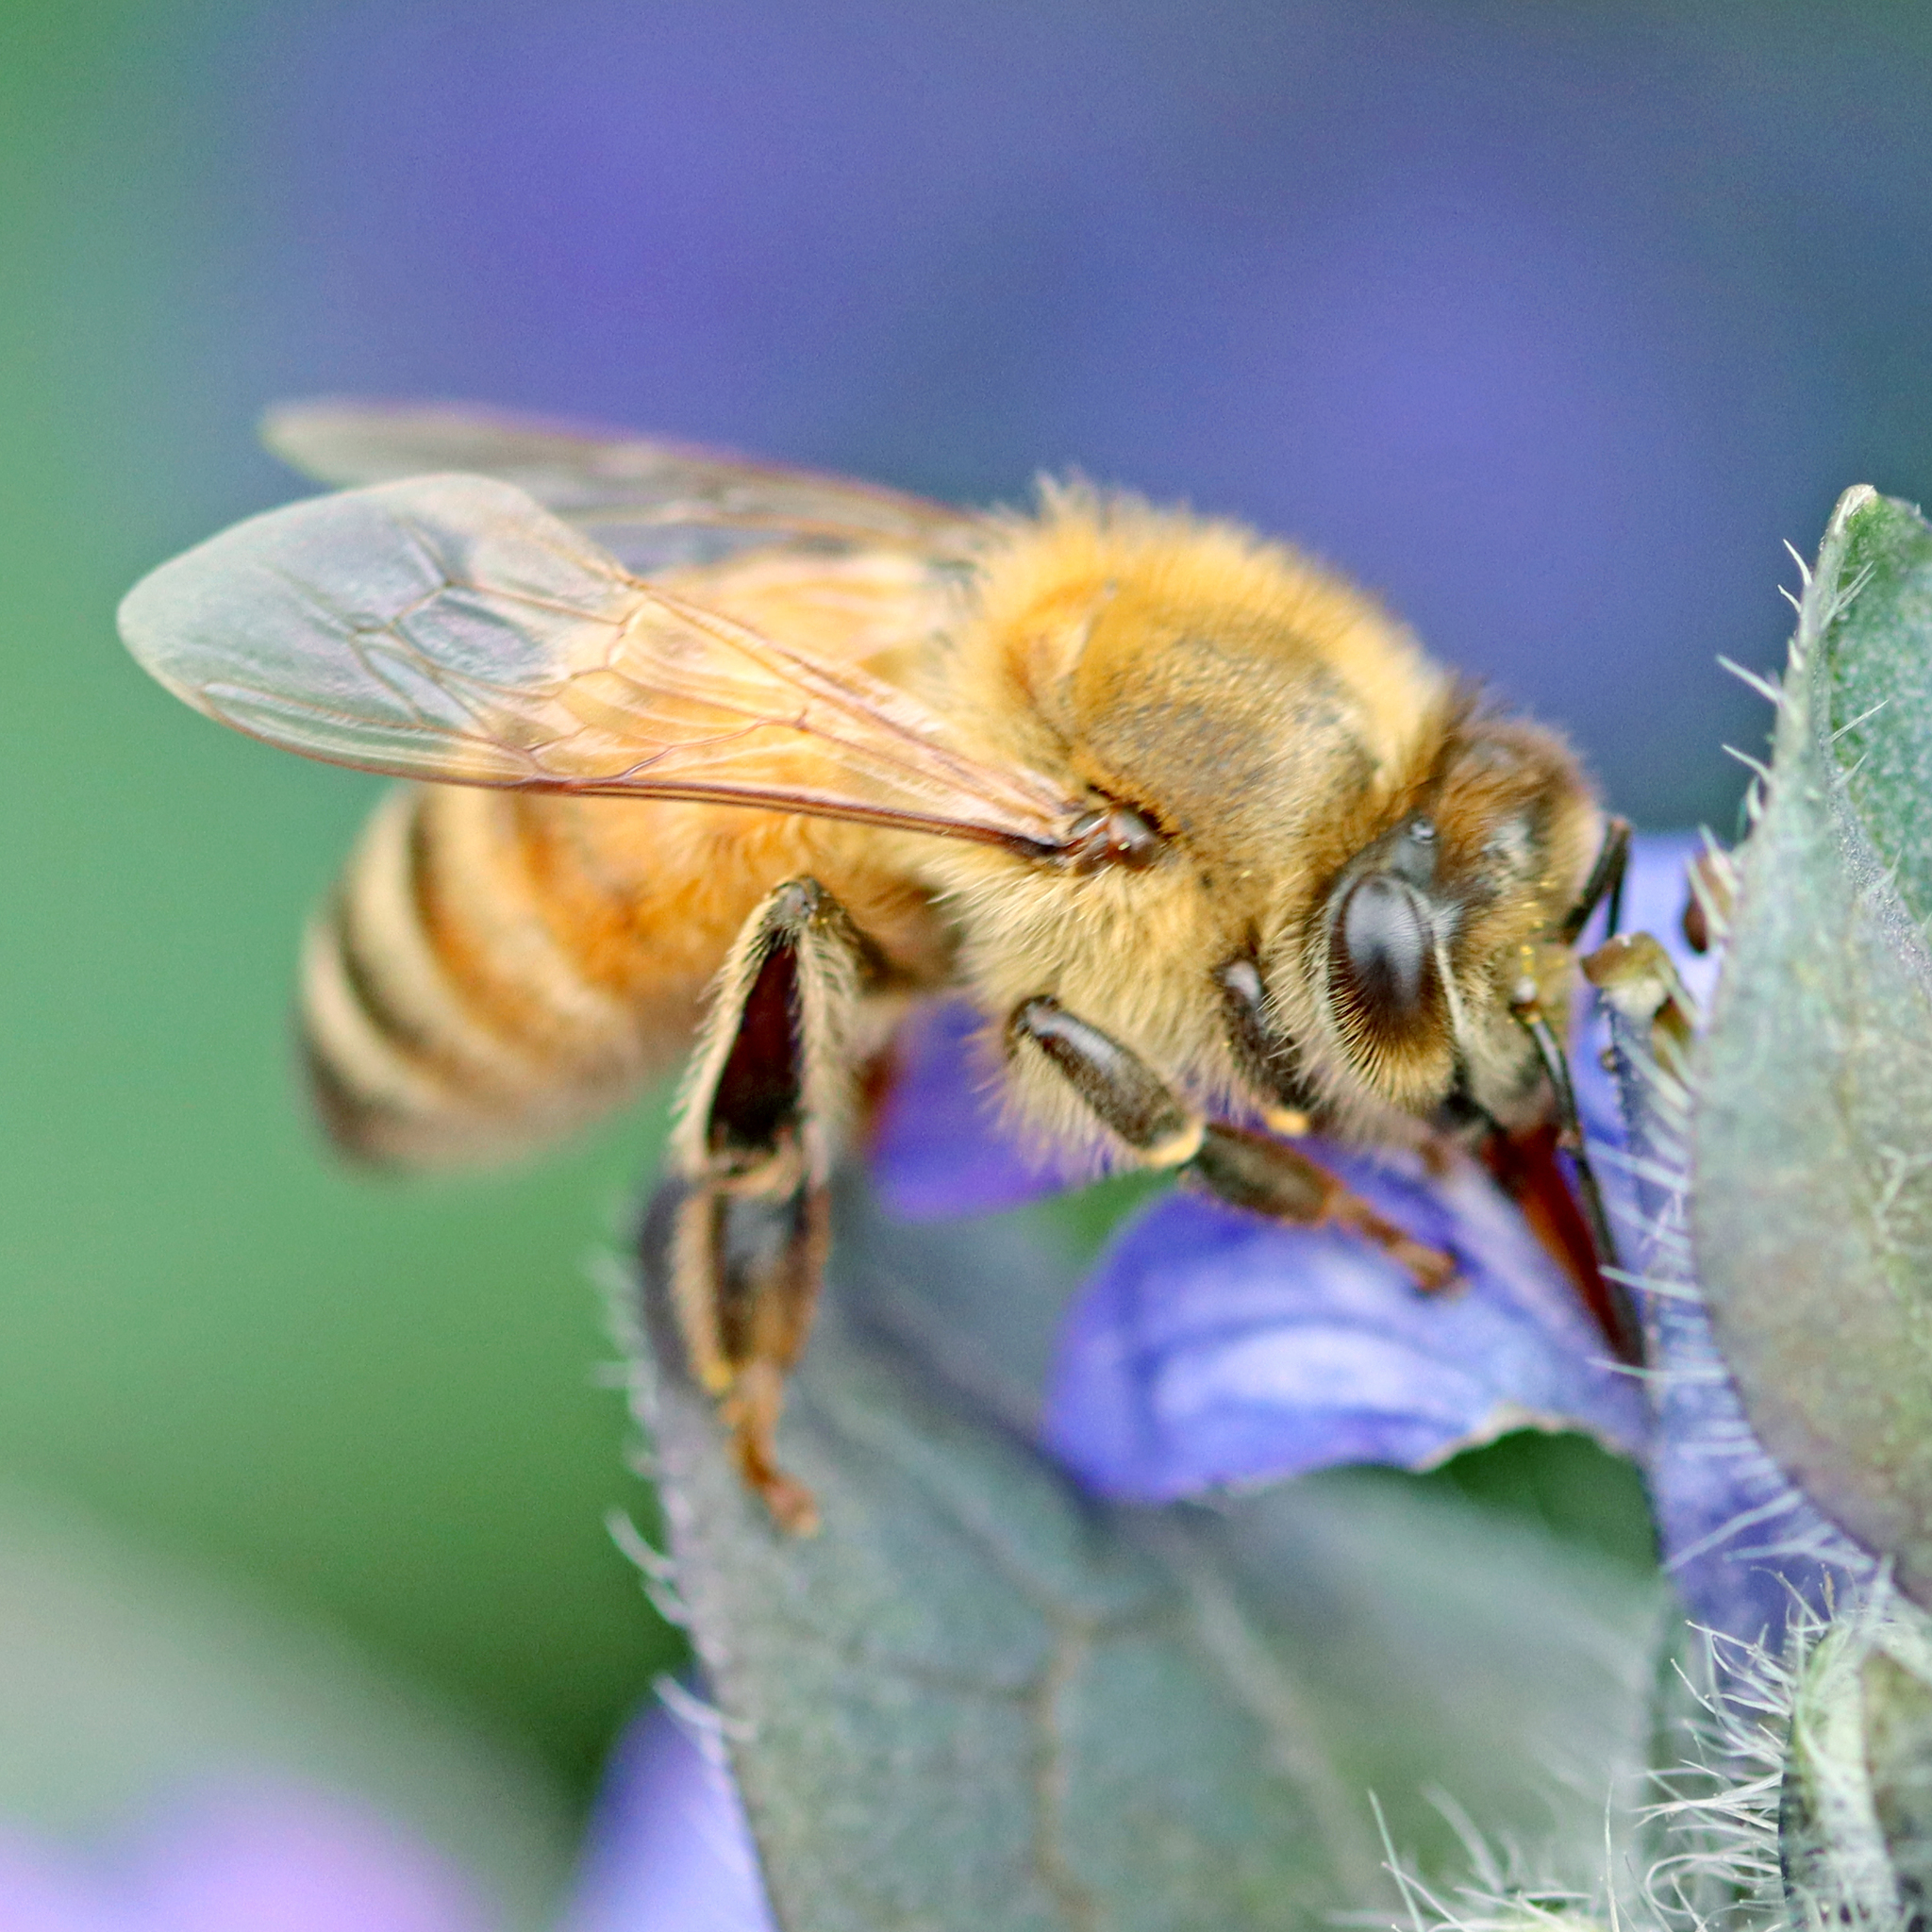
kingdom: Animalia
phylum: Arthropoda
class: Insecta
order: Hymenoptera
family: Apidae
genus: Apis
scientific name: Apis mellifera
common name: Honey bee
